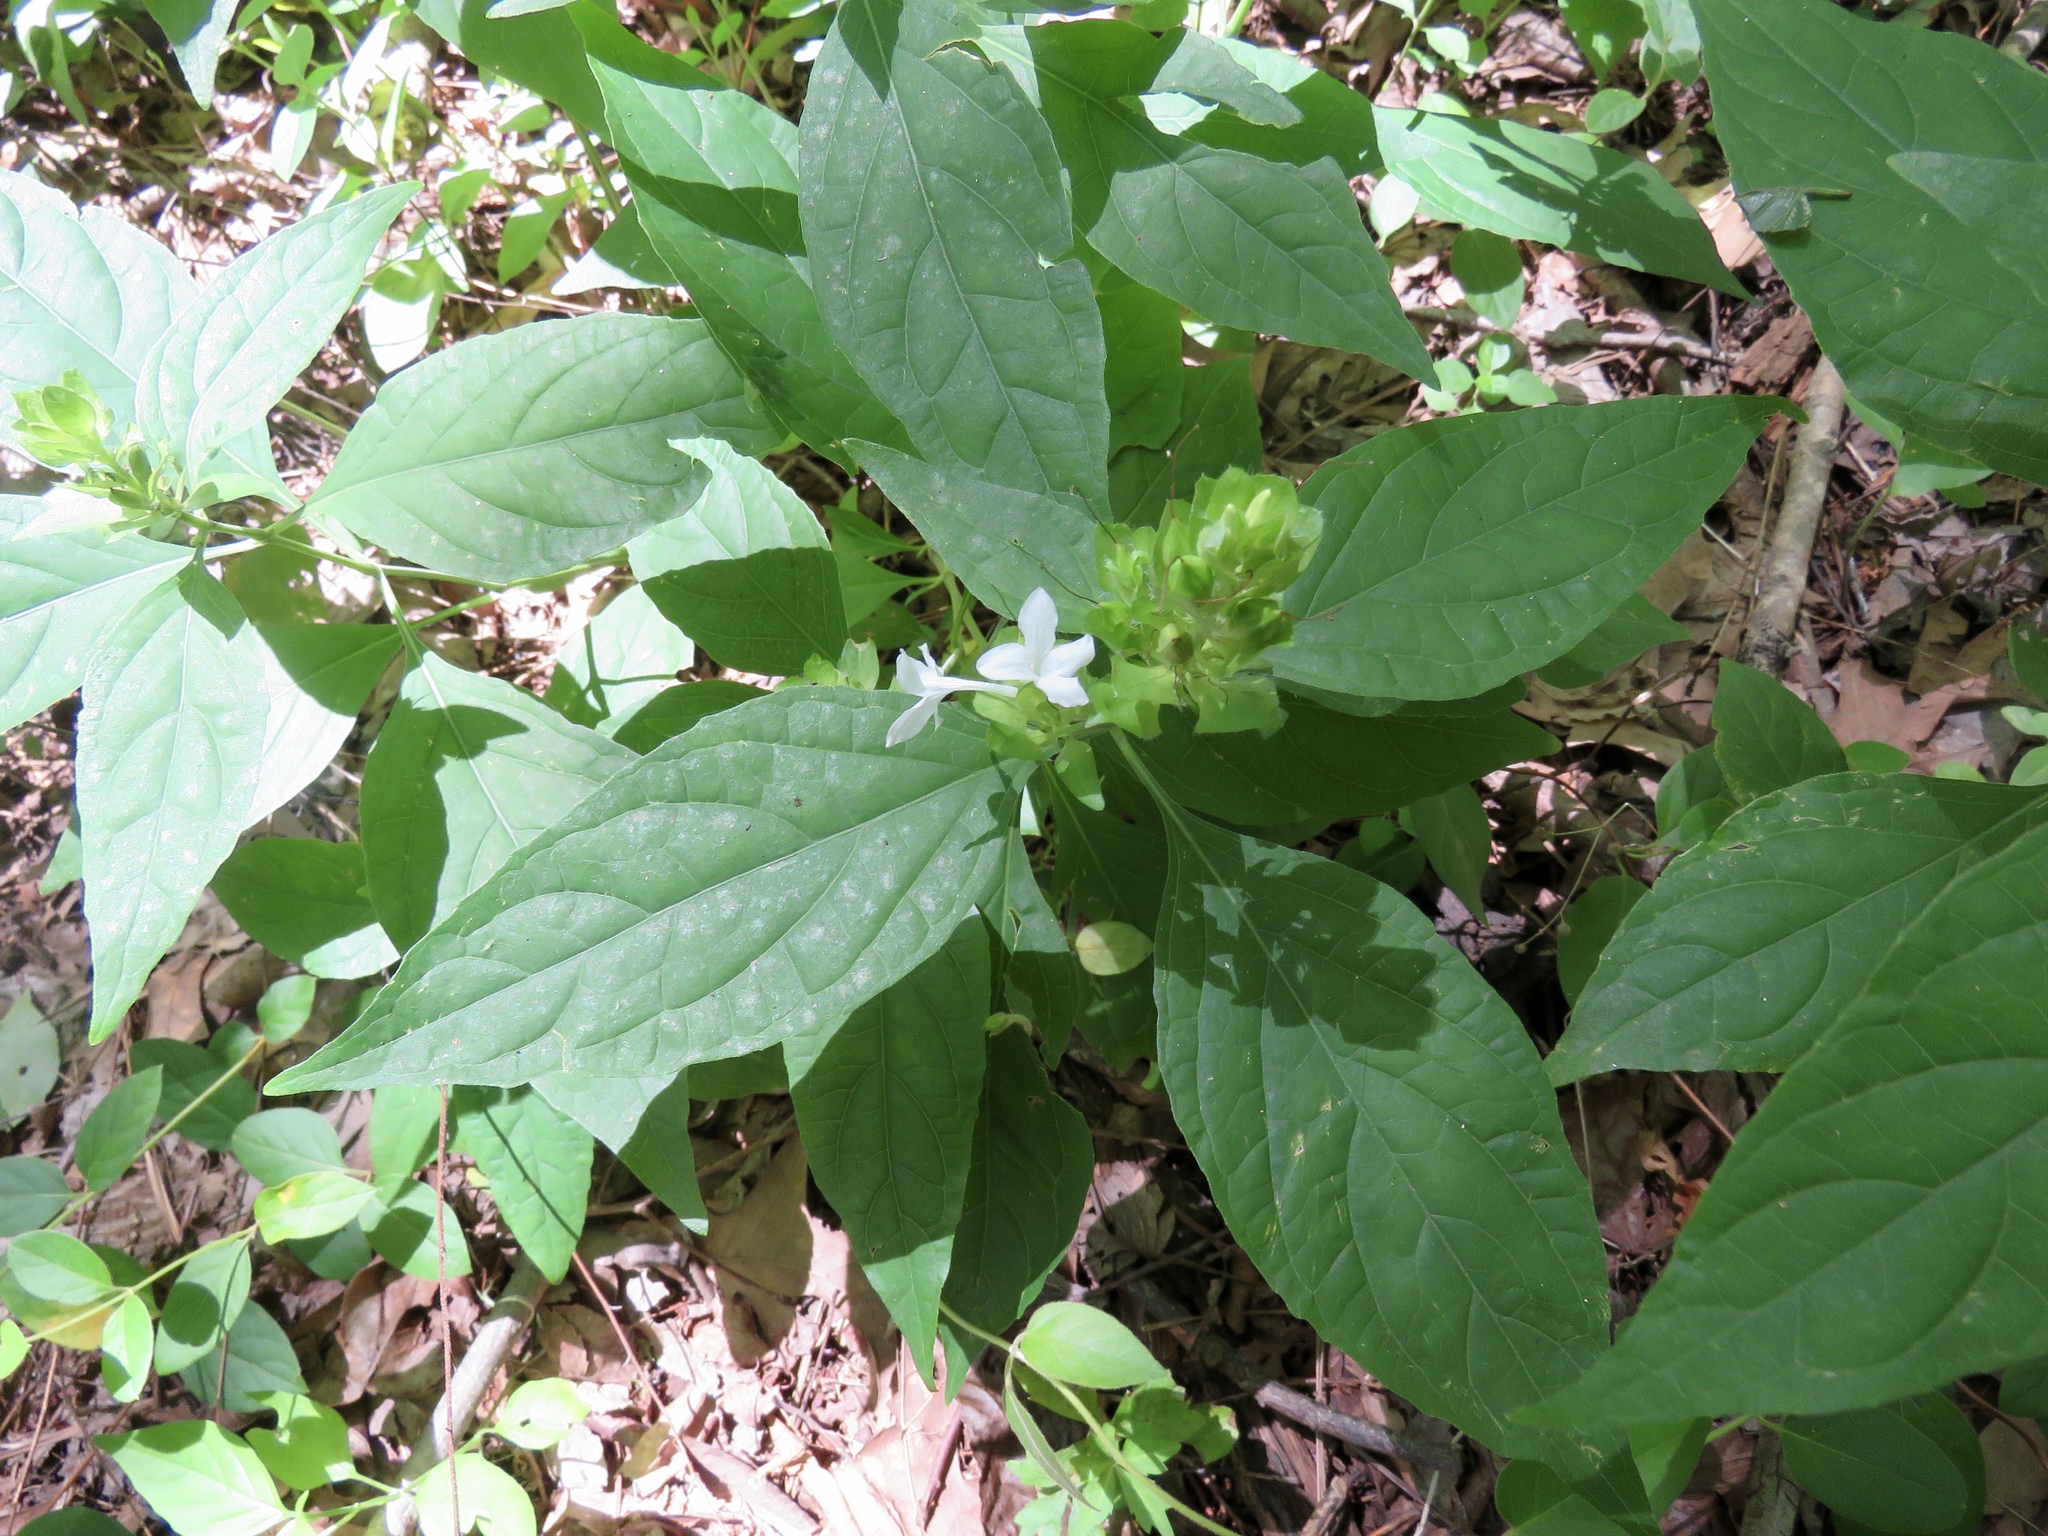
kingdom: Plantae
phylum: Tracheophyta
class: Magnoliopsida
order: Lamiales
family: Acanthaceae
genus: Yeatesia
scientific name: Yeatesia viridiflora
